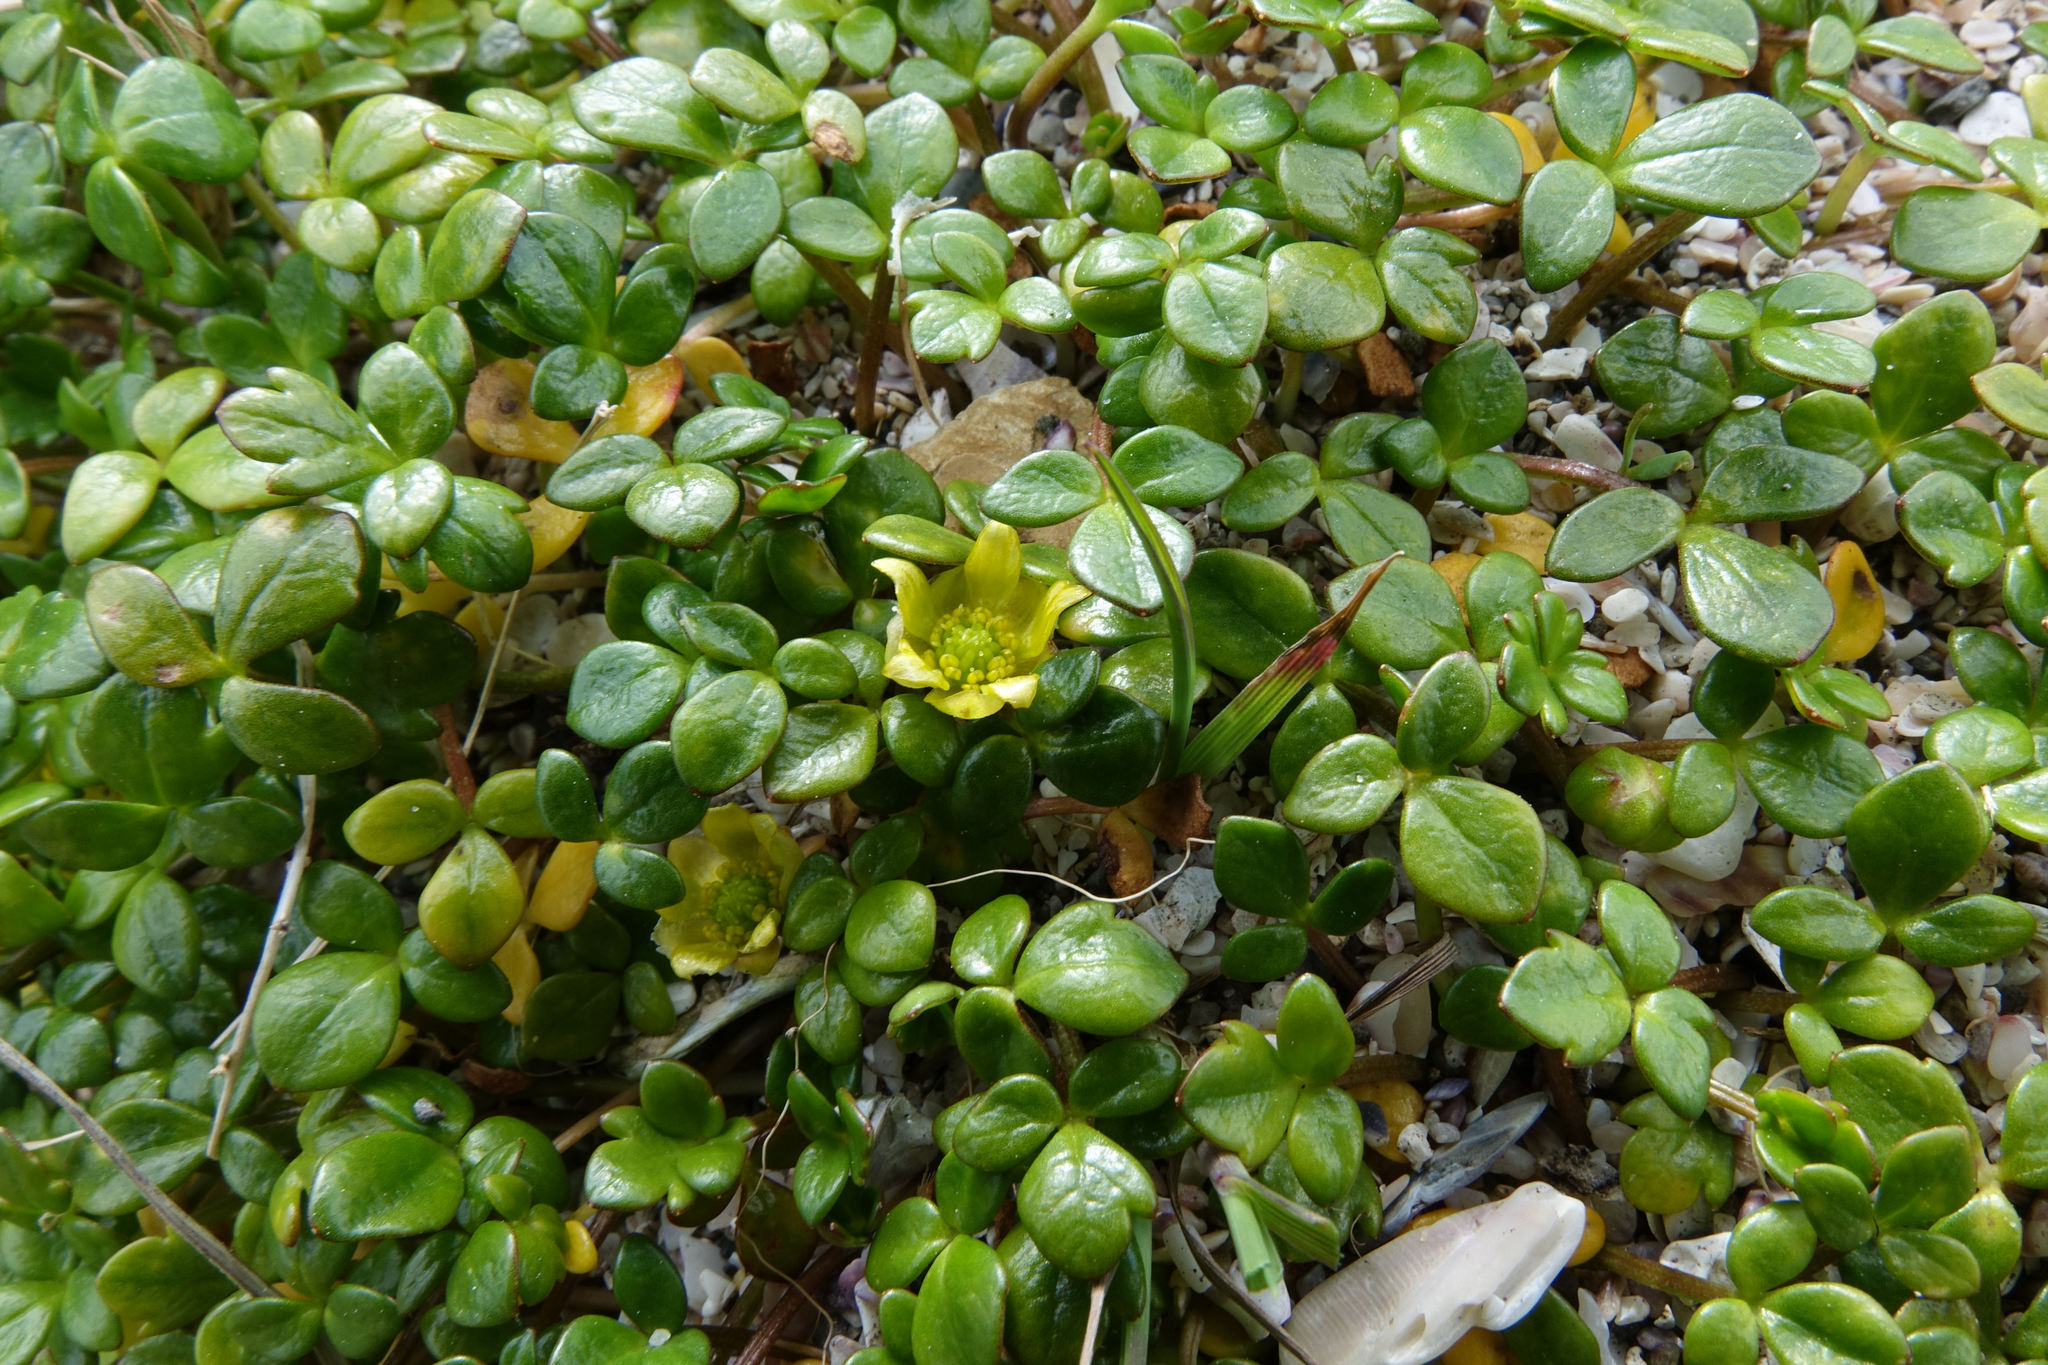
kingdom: Plantae
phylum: Tracheophyta
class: Magnoliopsida
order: Ranunculales
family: Ranunculaceae
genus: Ranunculus
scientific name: Ranunculus acaulis
